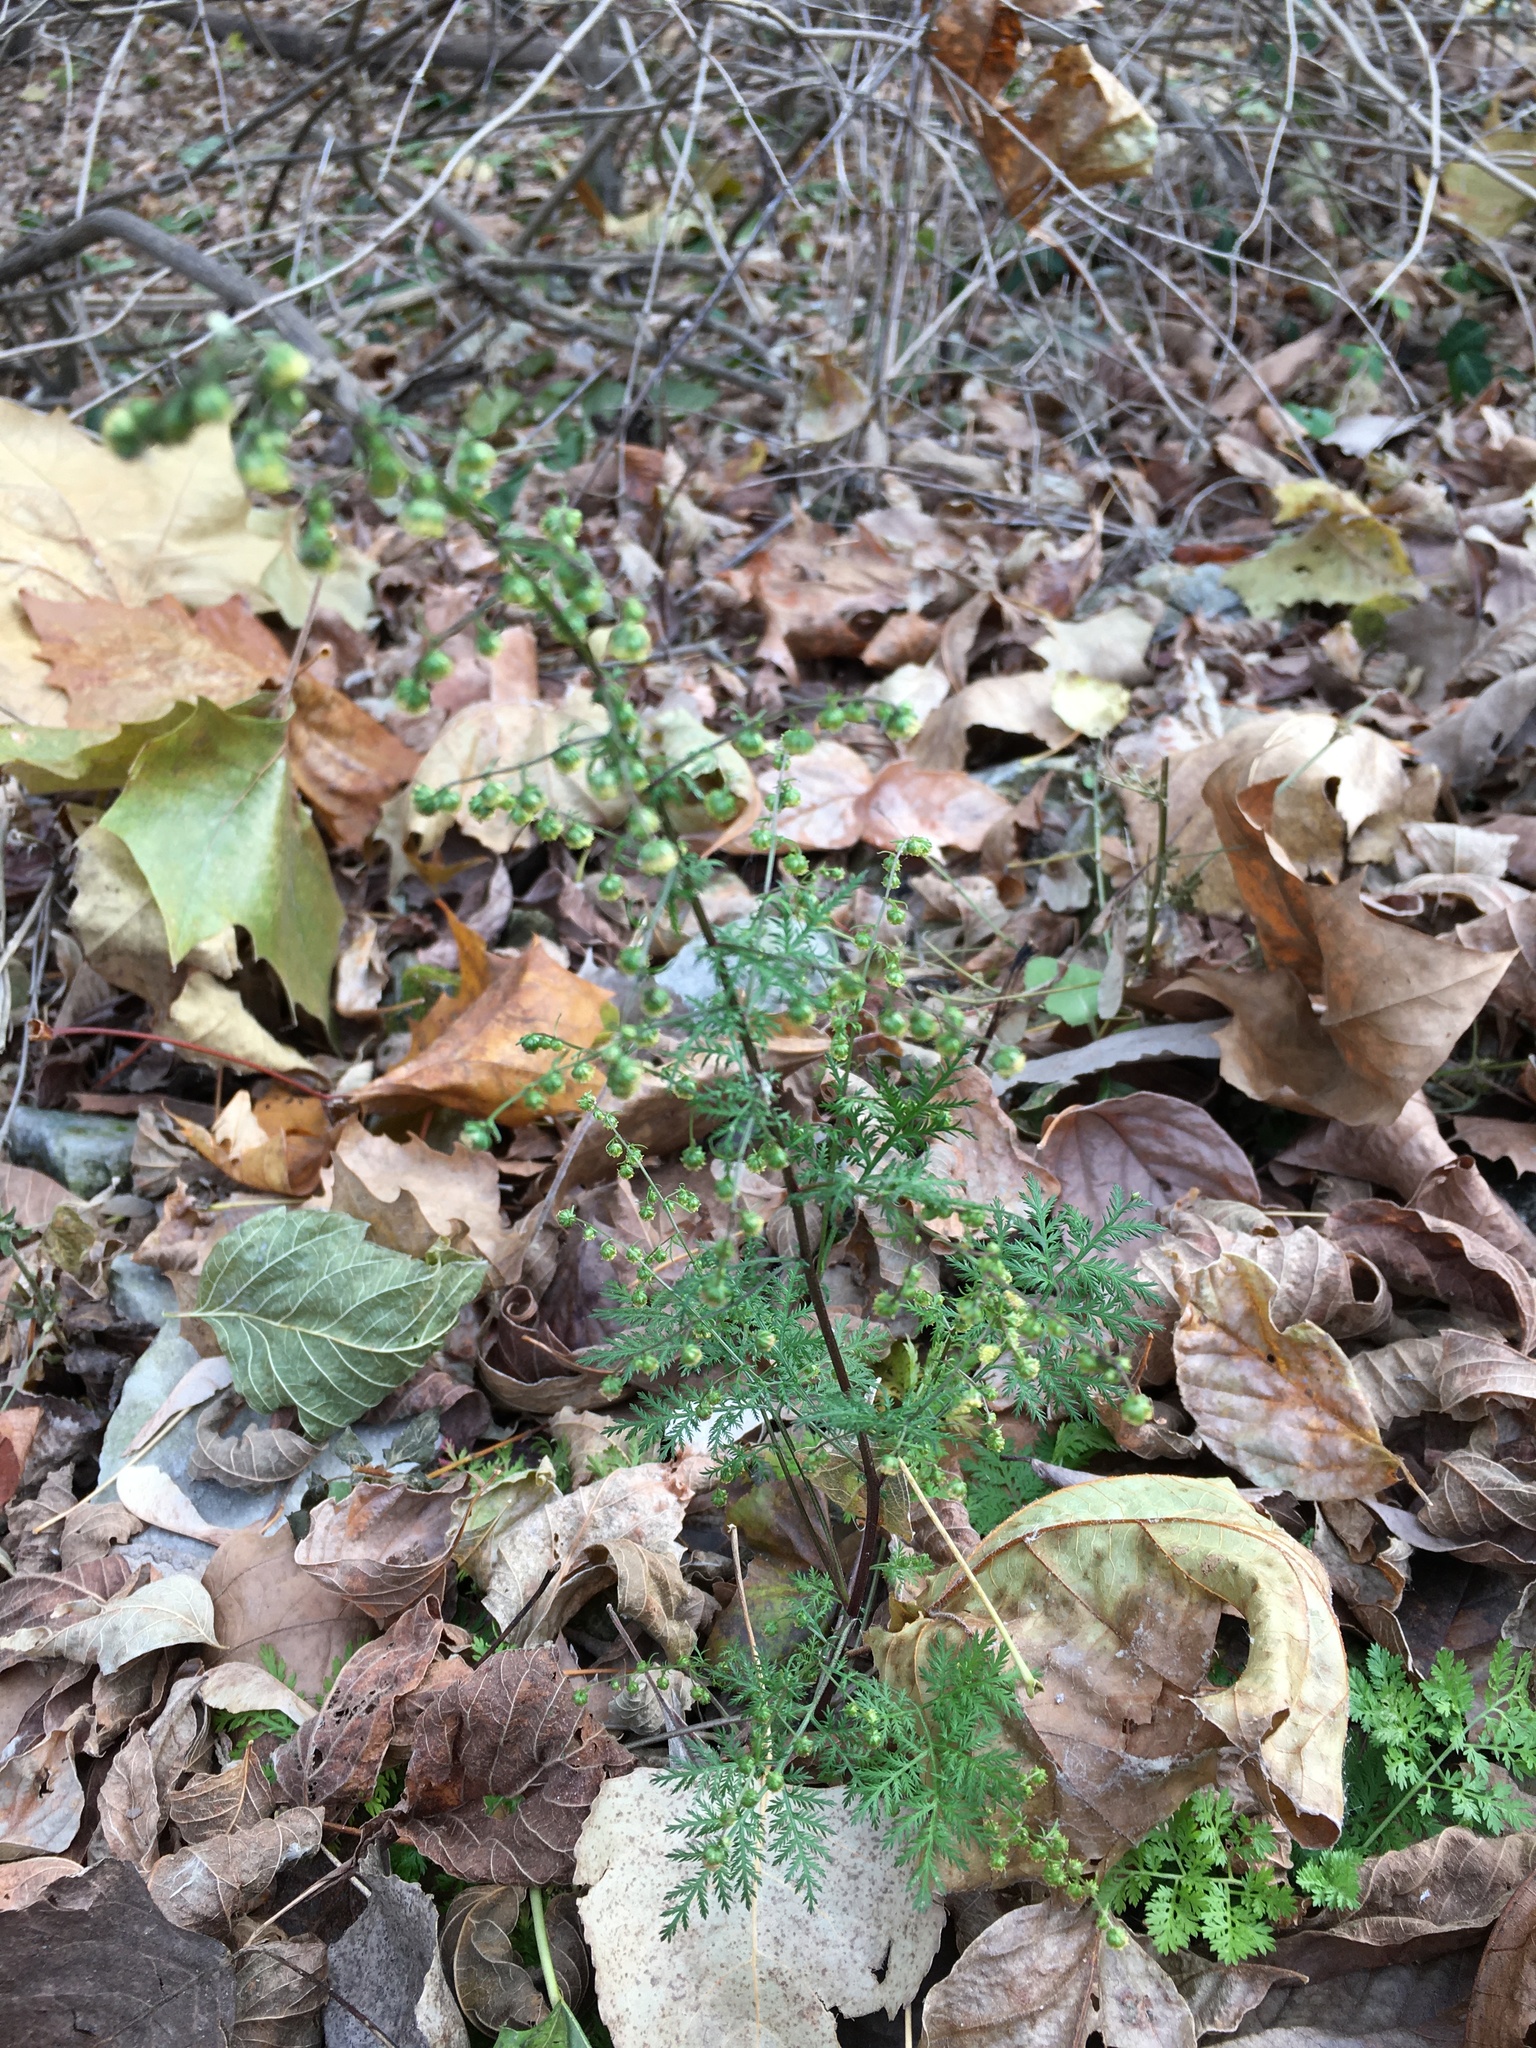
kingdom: Plantae
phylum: Tracheophyta
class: Magnoliopsida
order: Asterales
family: Asteraceae
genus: Artemisia
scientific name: Artemisia annua
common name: Sweet sagewort
